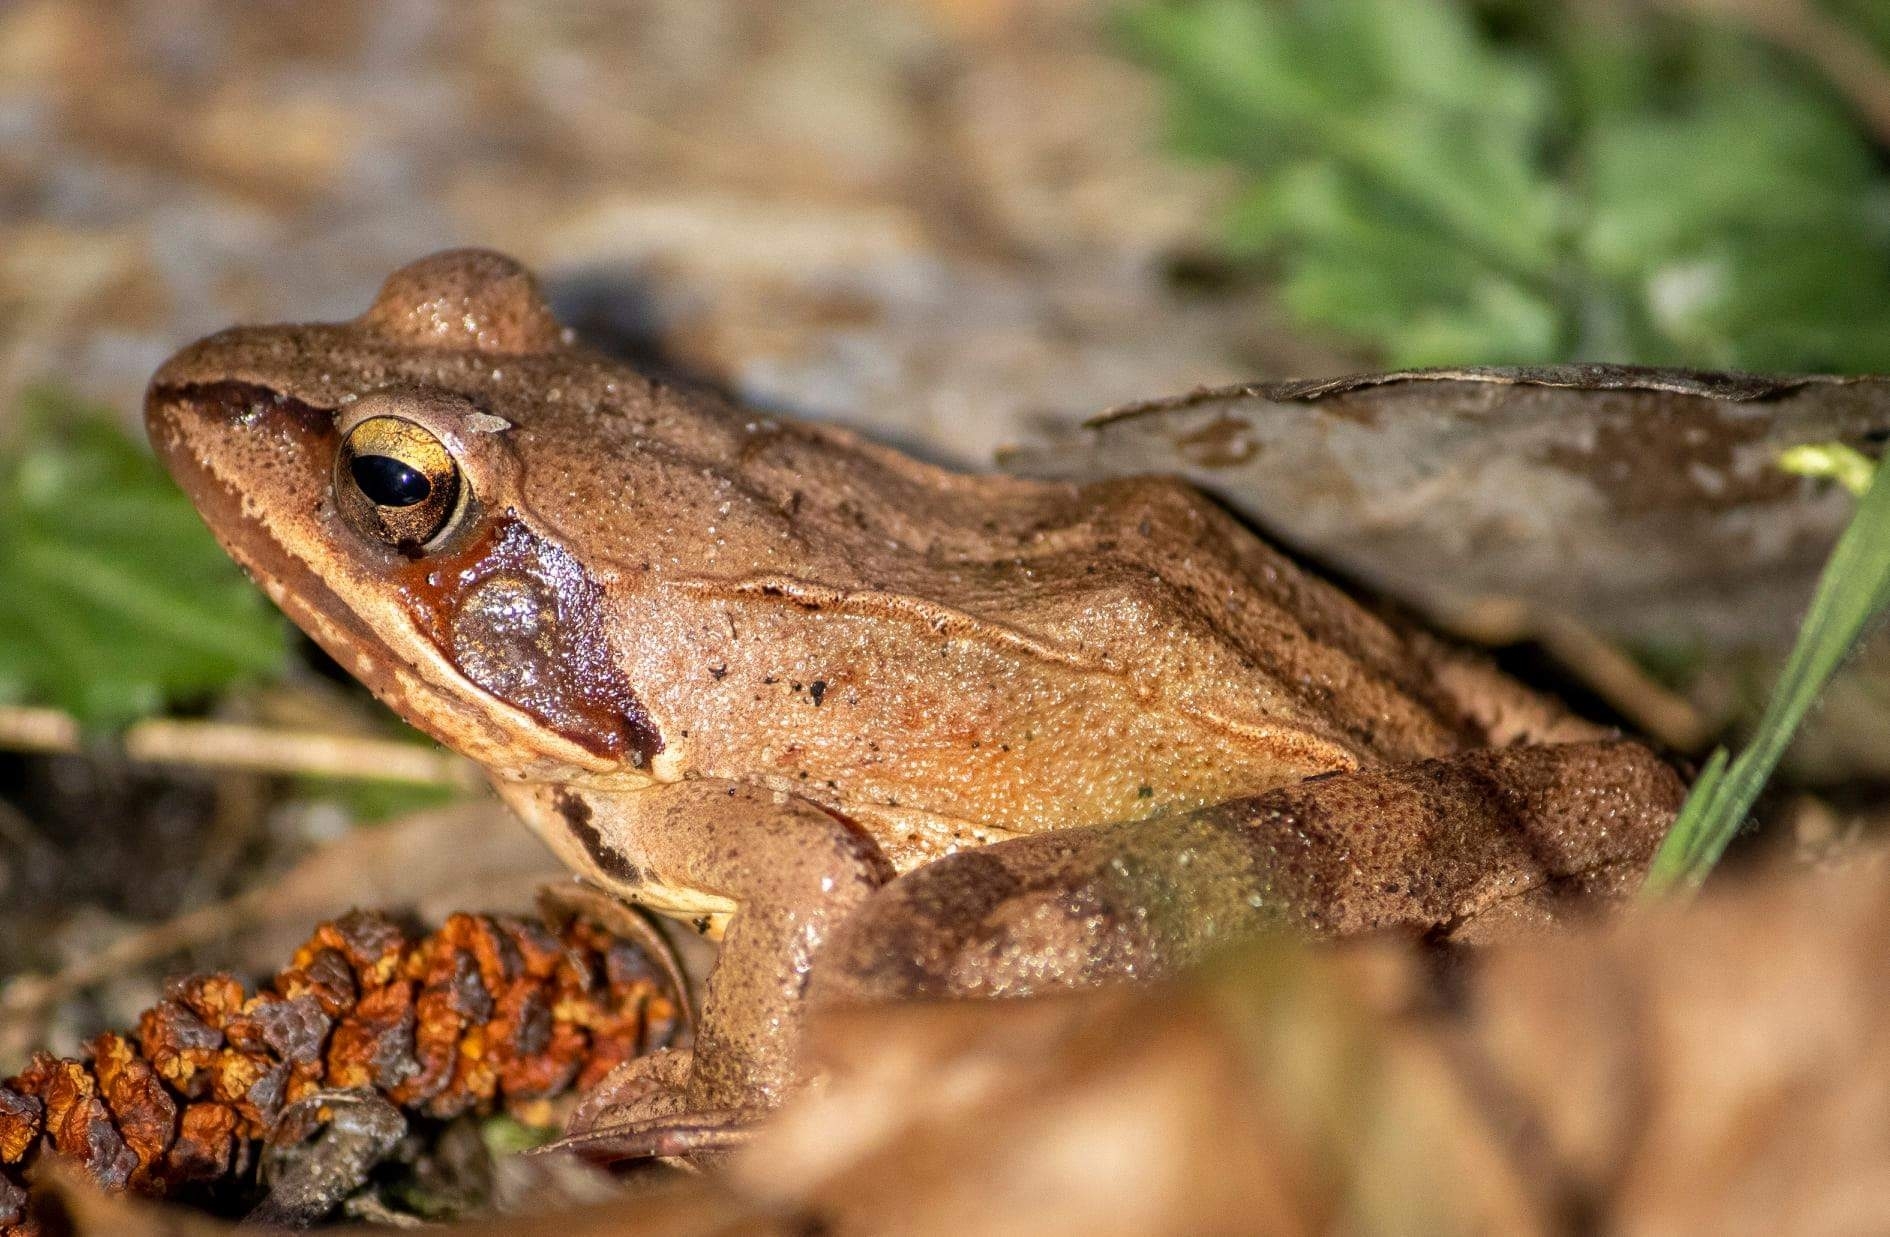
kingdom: Animalia
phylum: Chordata
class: Amphibia
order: Anura
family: Ranidae
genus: Rana
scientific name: Rana dalmatina
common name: Agile frog
